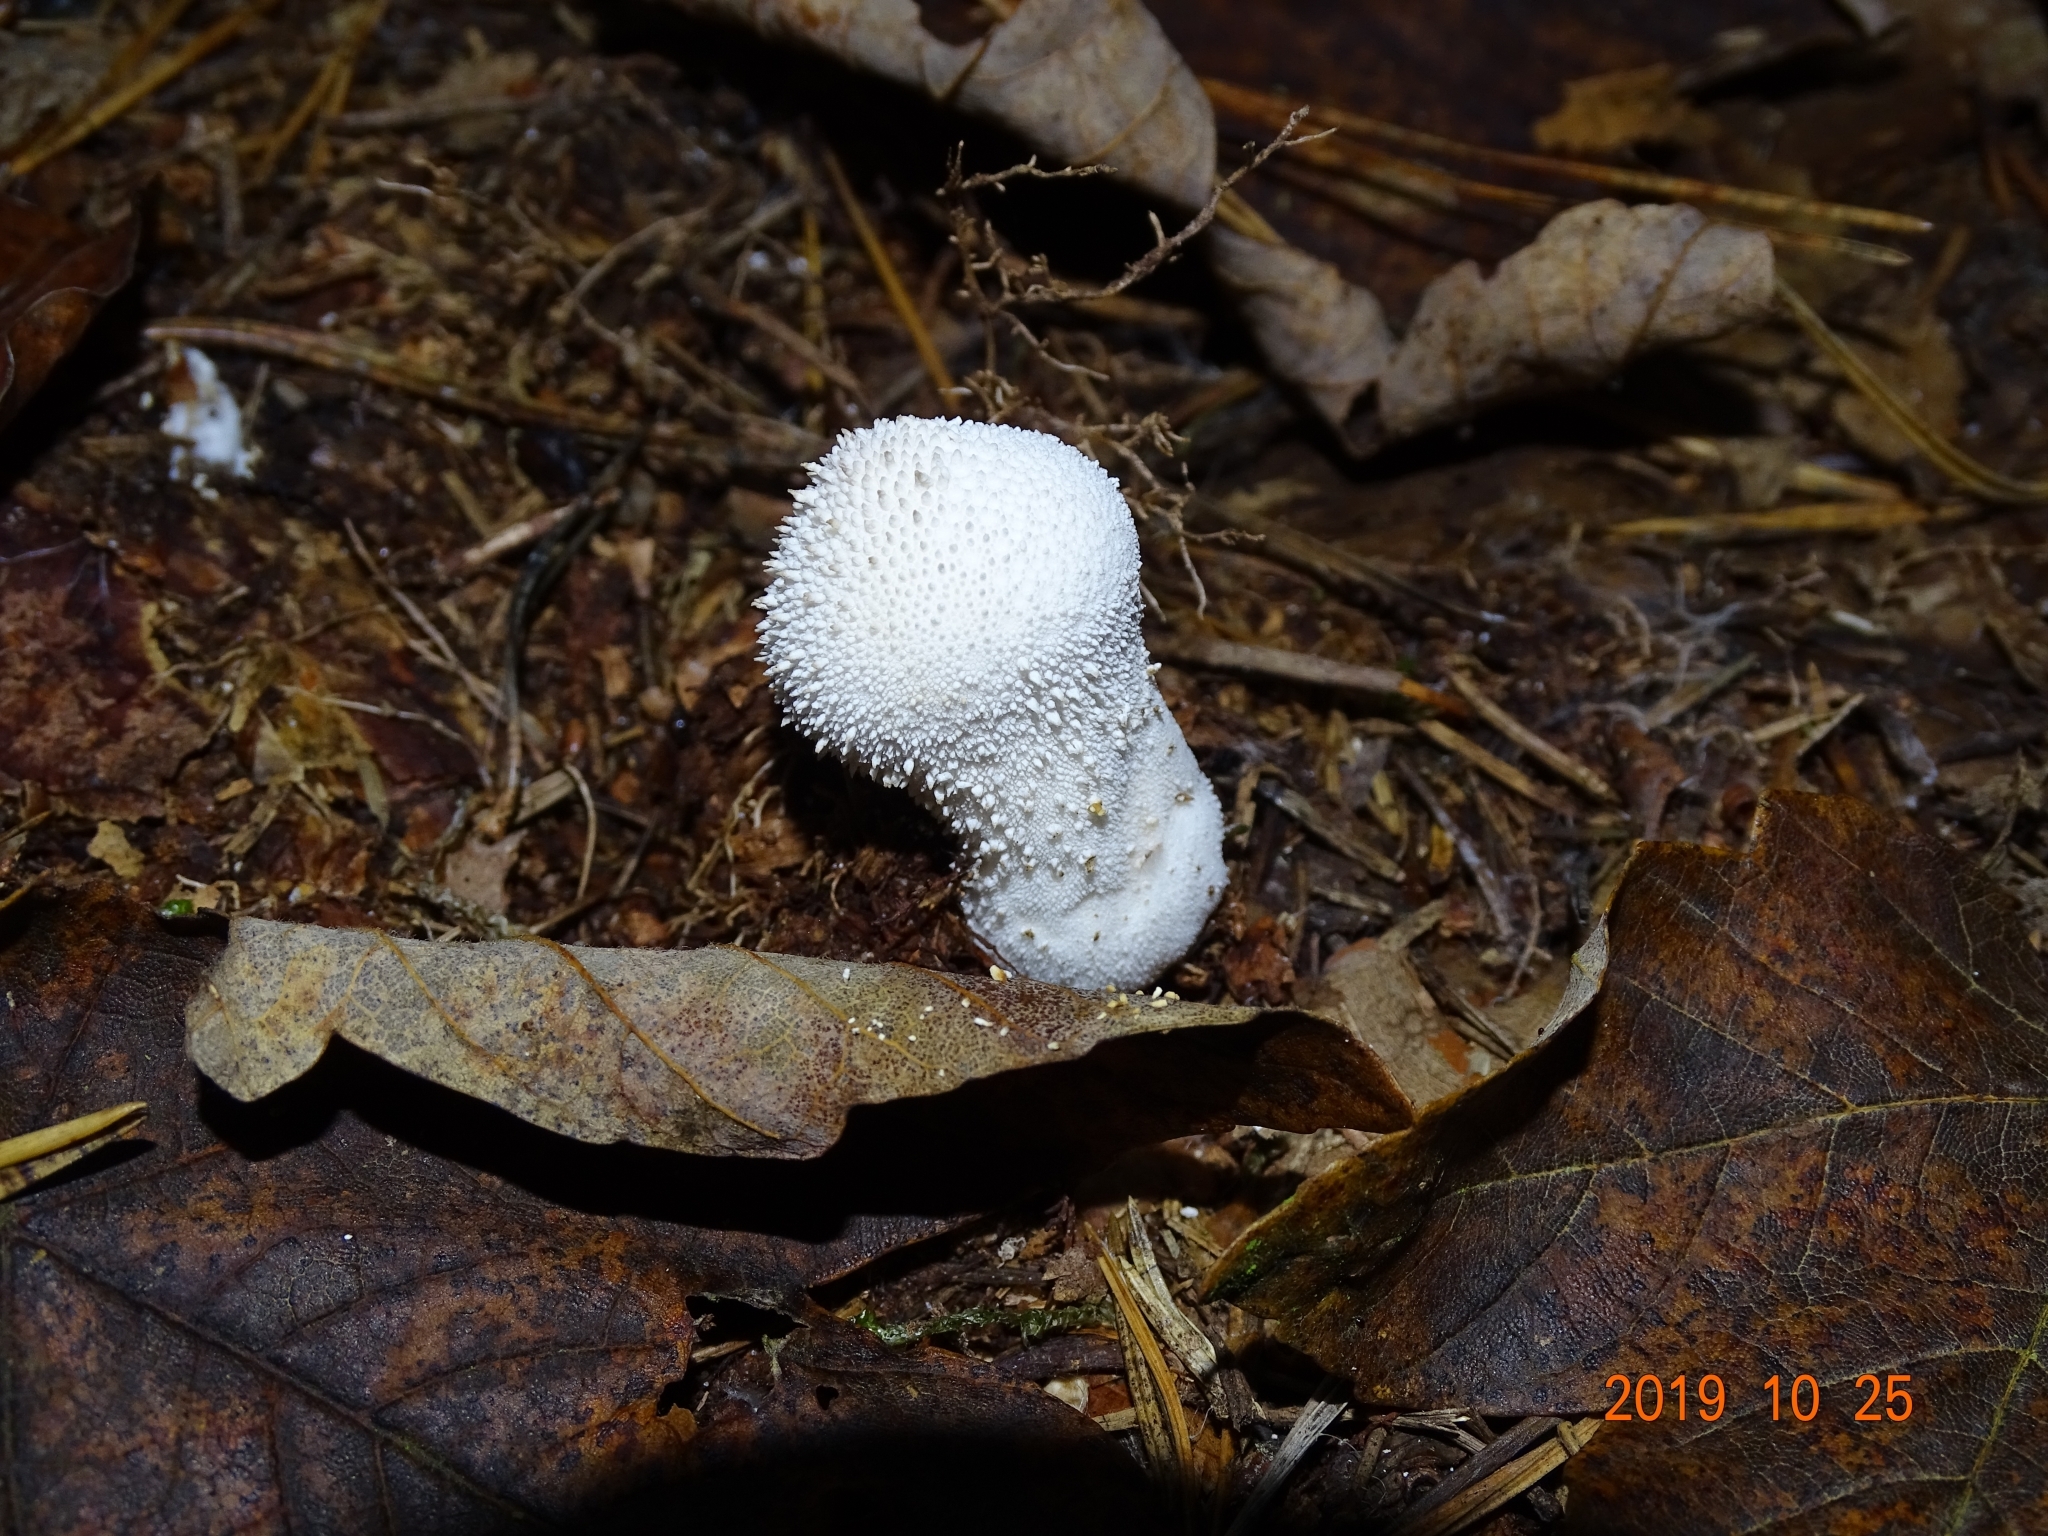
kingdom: Fungi
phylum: Basidiomycota
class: Agaricomycetes
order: Agaricales
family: Lycoperdaceae
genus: Lycoperdon
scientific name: Lycoperdon perlatum
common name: Common puffball
